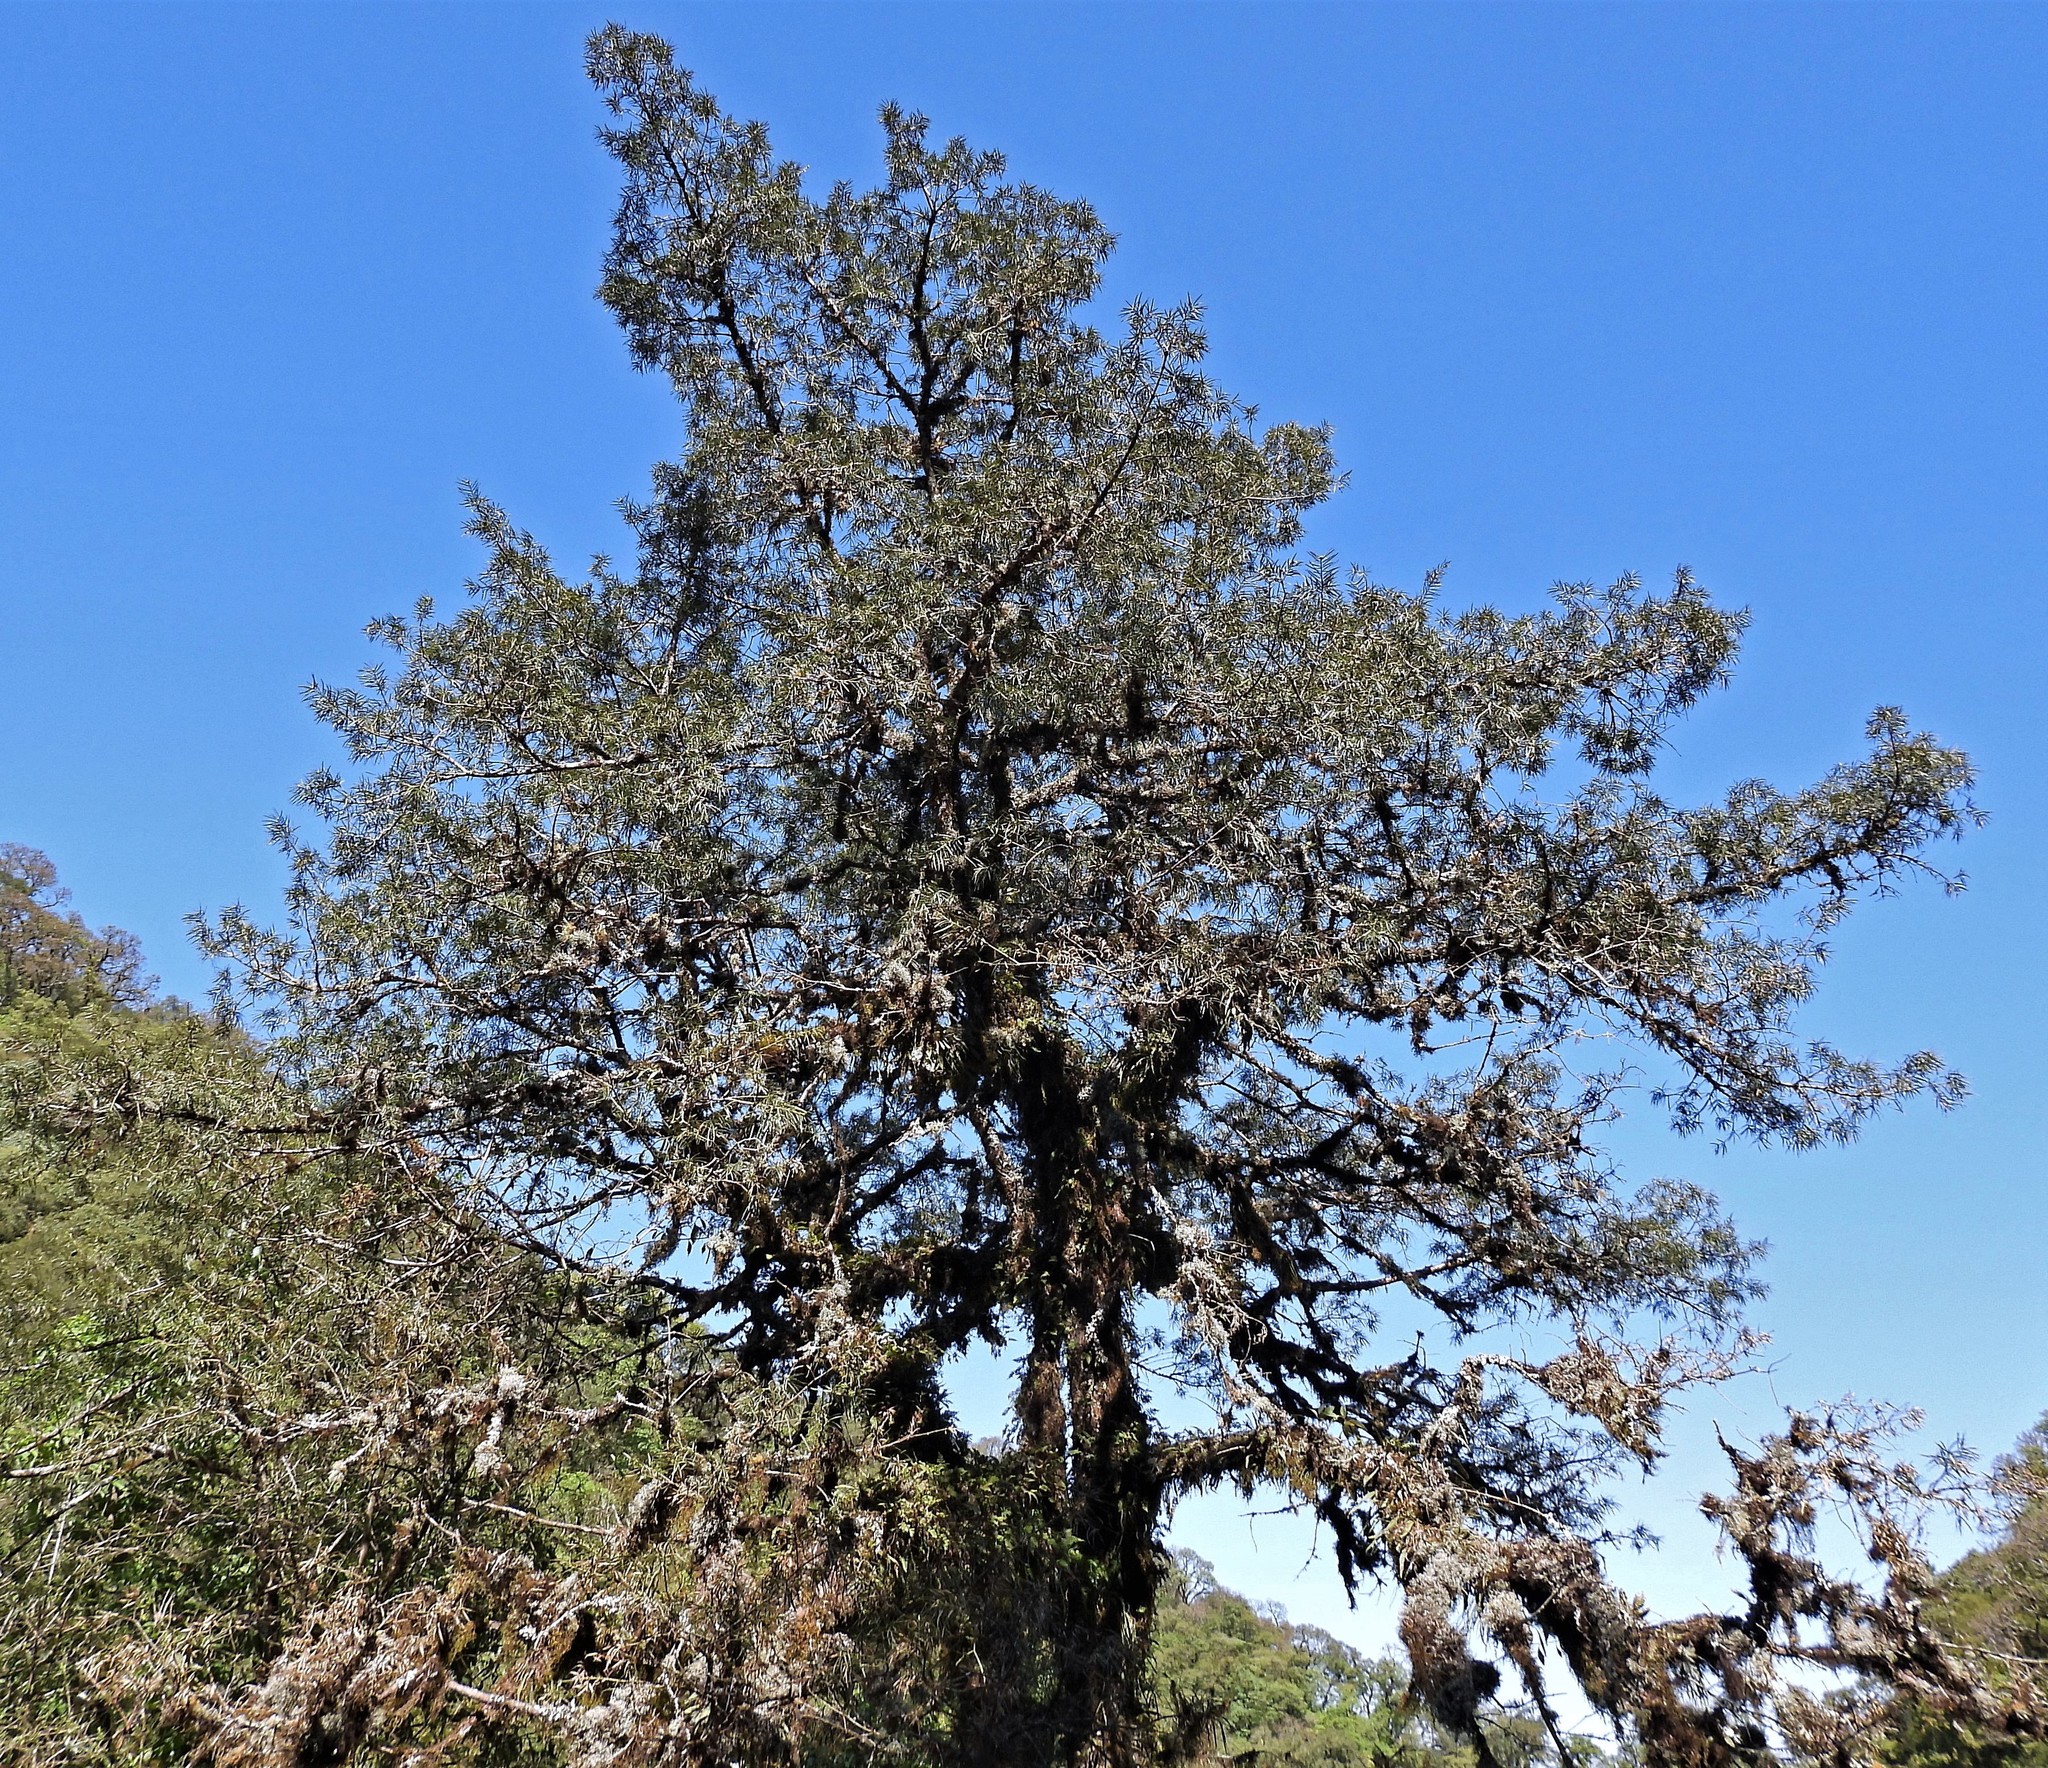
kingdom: Plantae
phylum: Tracheophyta
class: Pinopsida
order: Pinales
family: Podocarpaceae
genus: Podocarpus
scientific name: Podocarpus parlatorei
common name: Pino blanco
